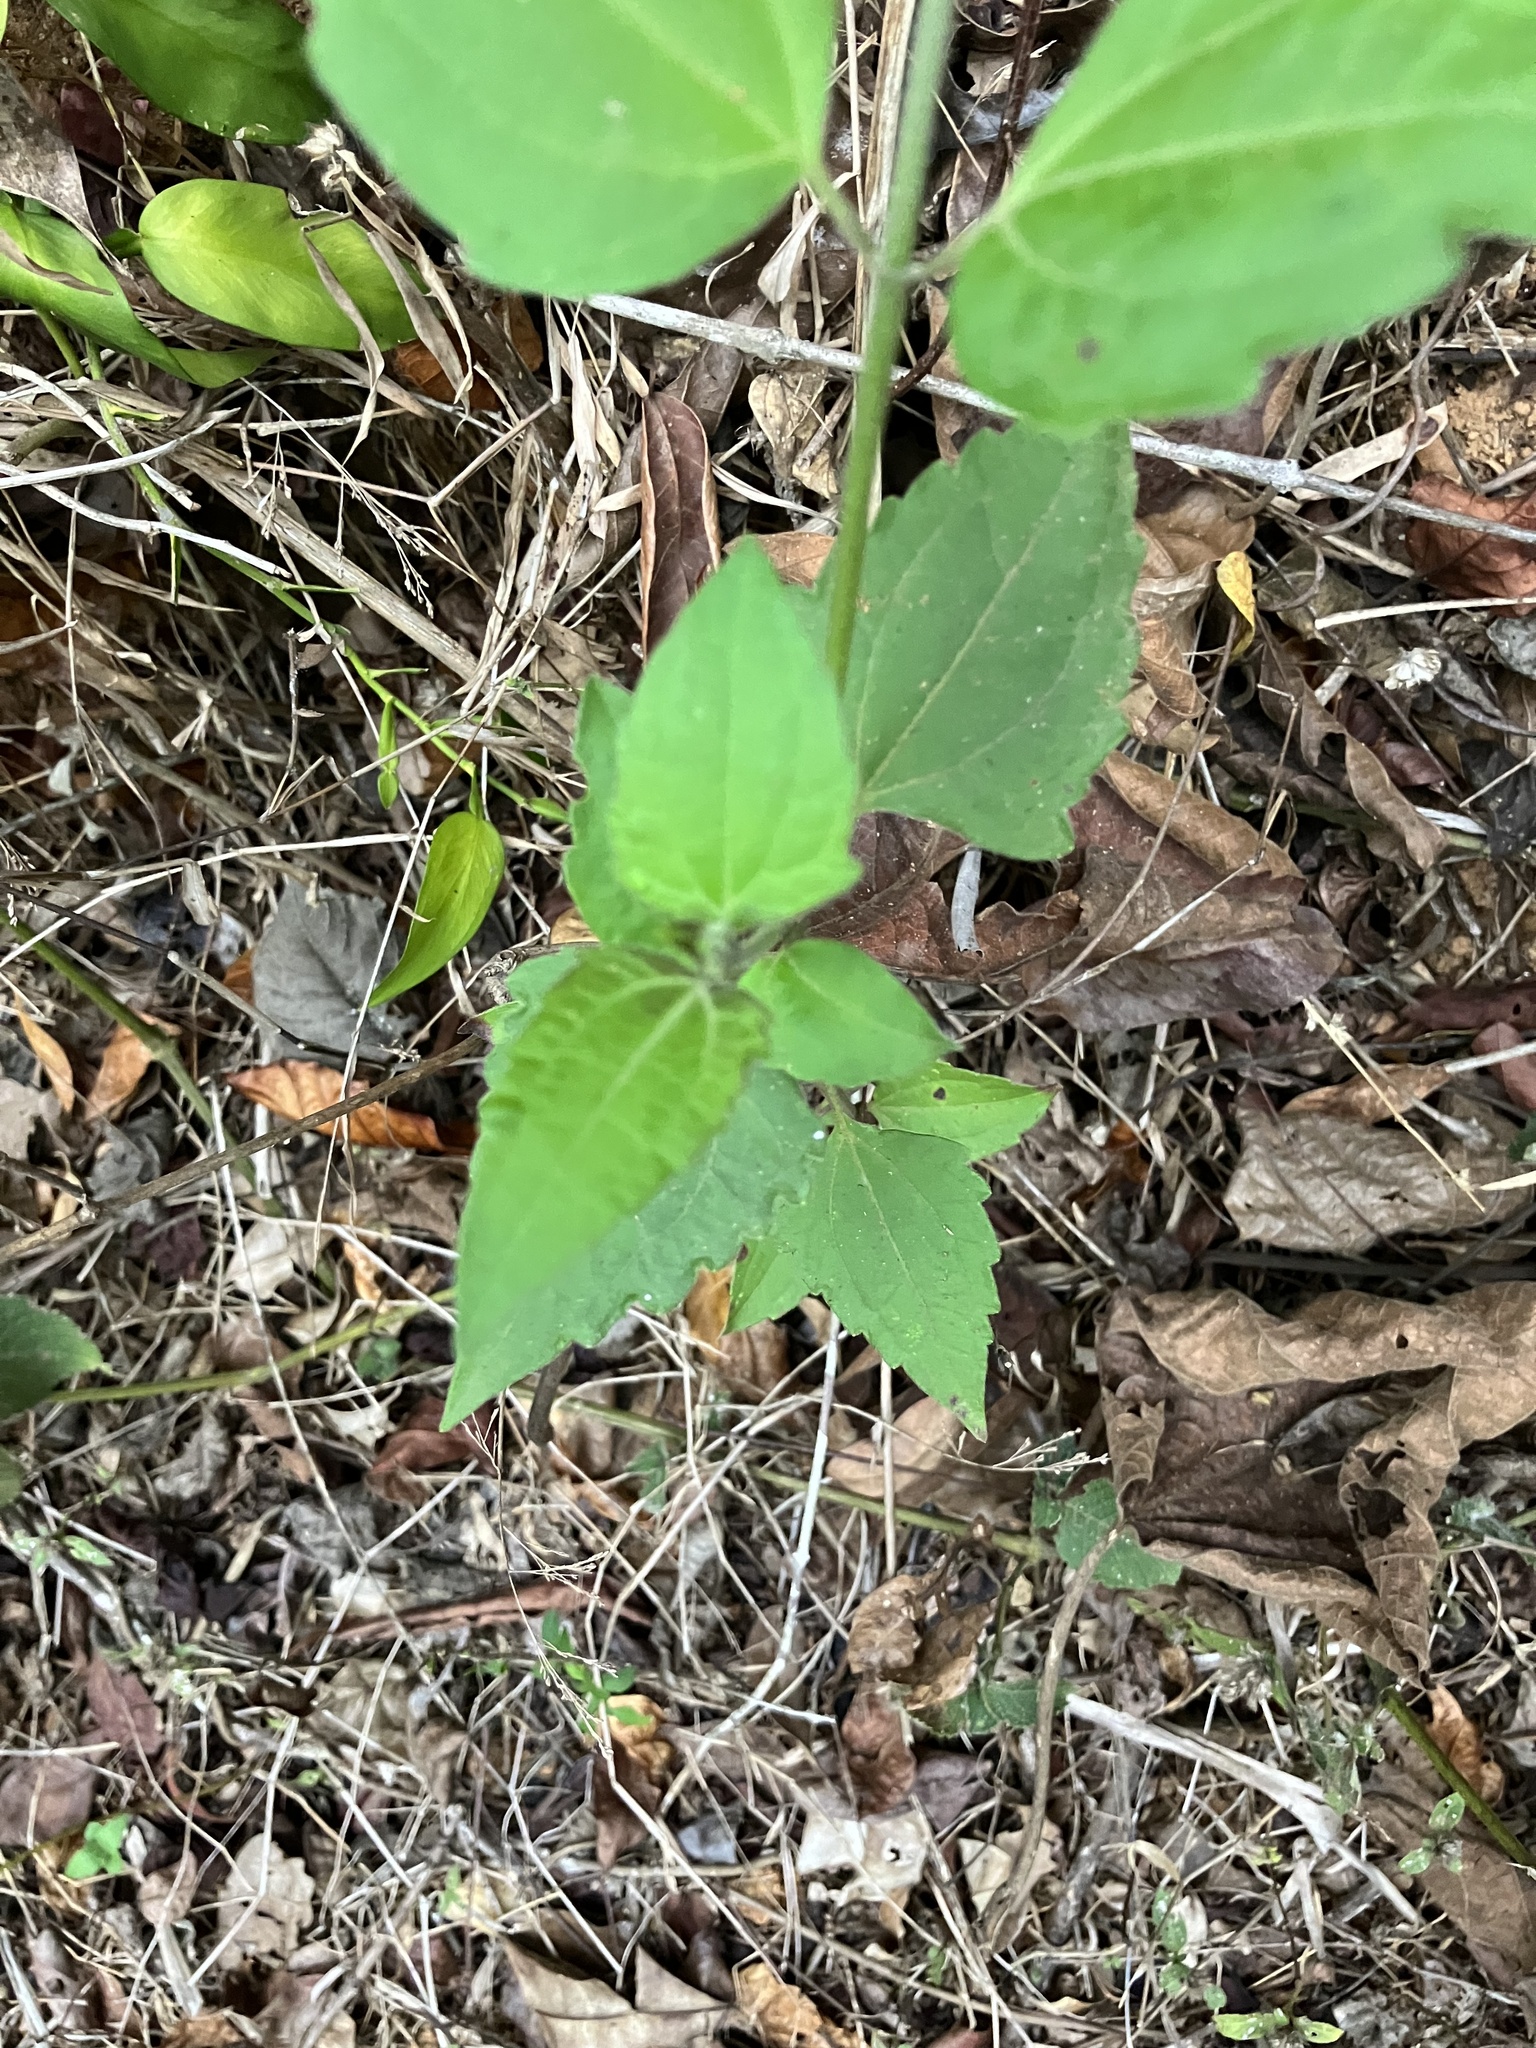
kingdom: Plantae
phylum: Tracheophyta
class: Magnoliopsida
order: Asterales
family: Asteraceae
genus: Chromolaena
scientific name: Chromolaena odorata
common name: Siamweed
